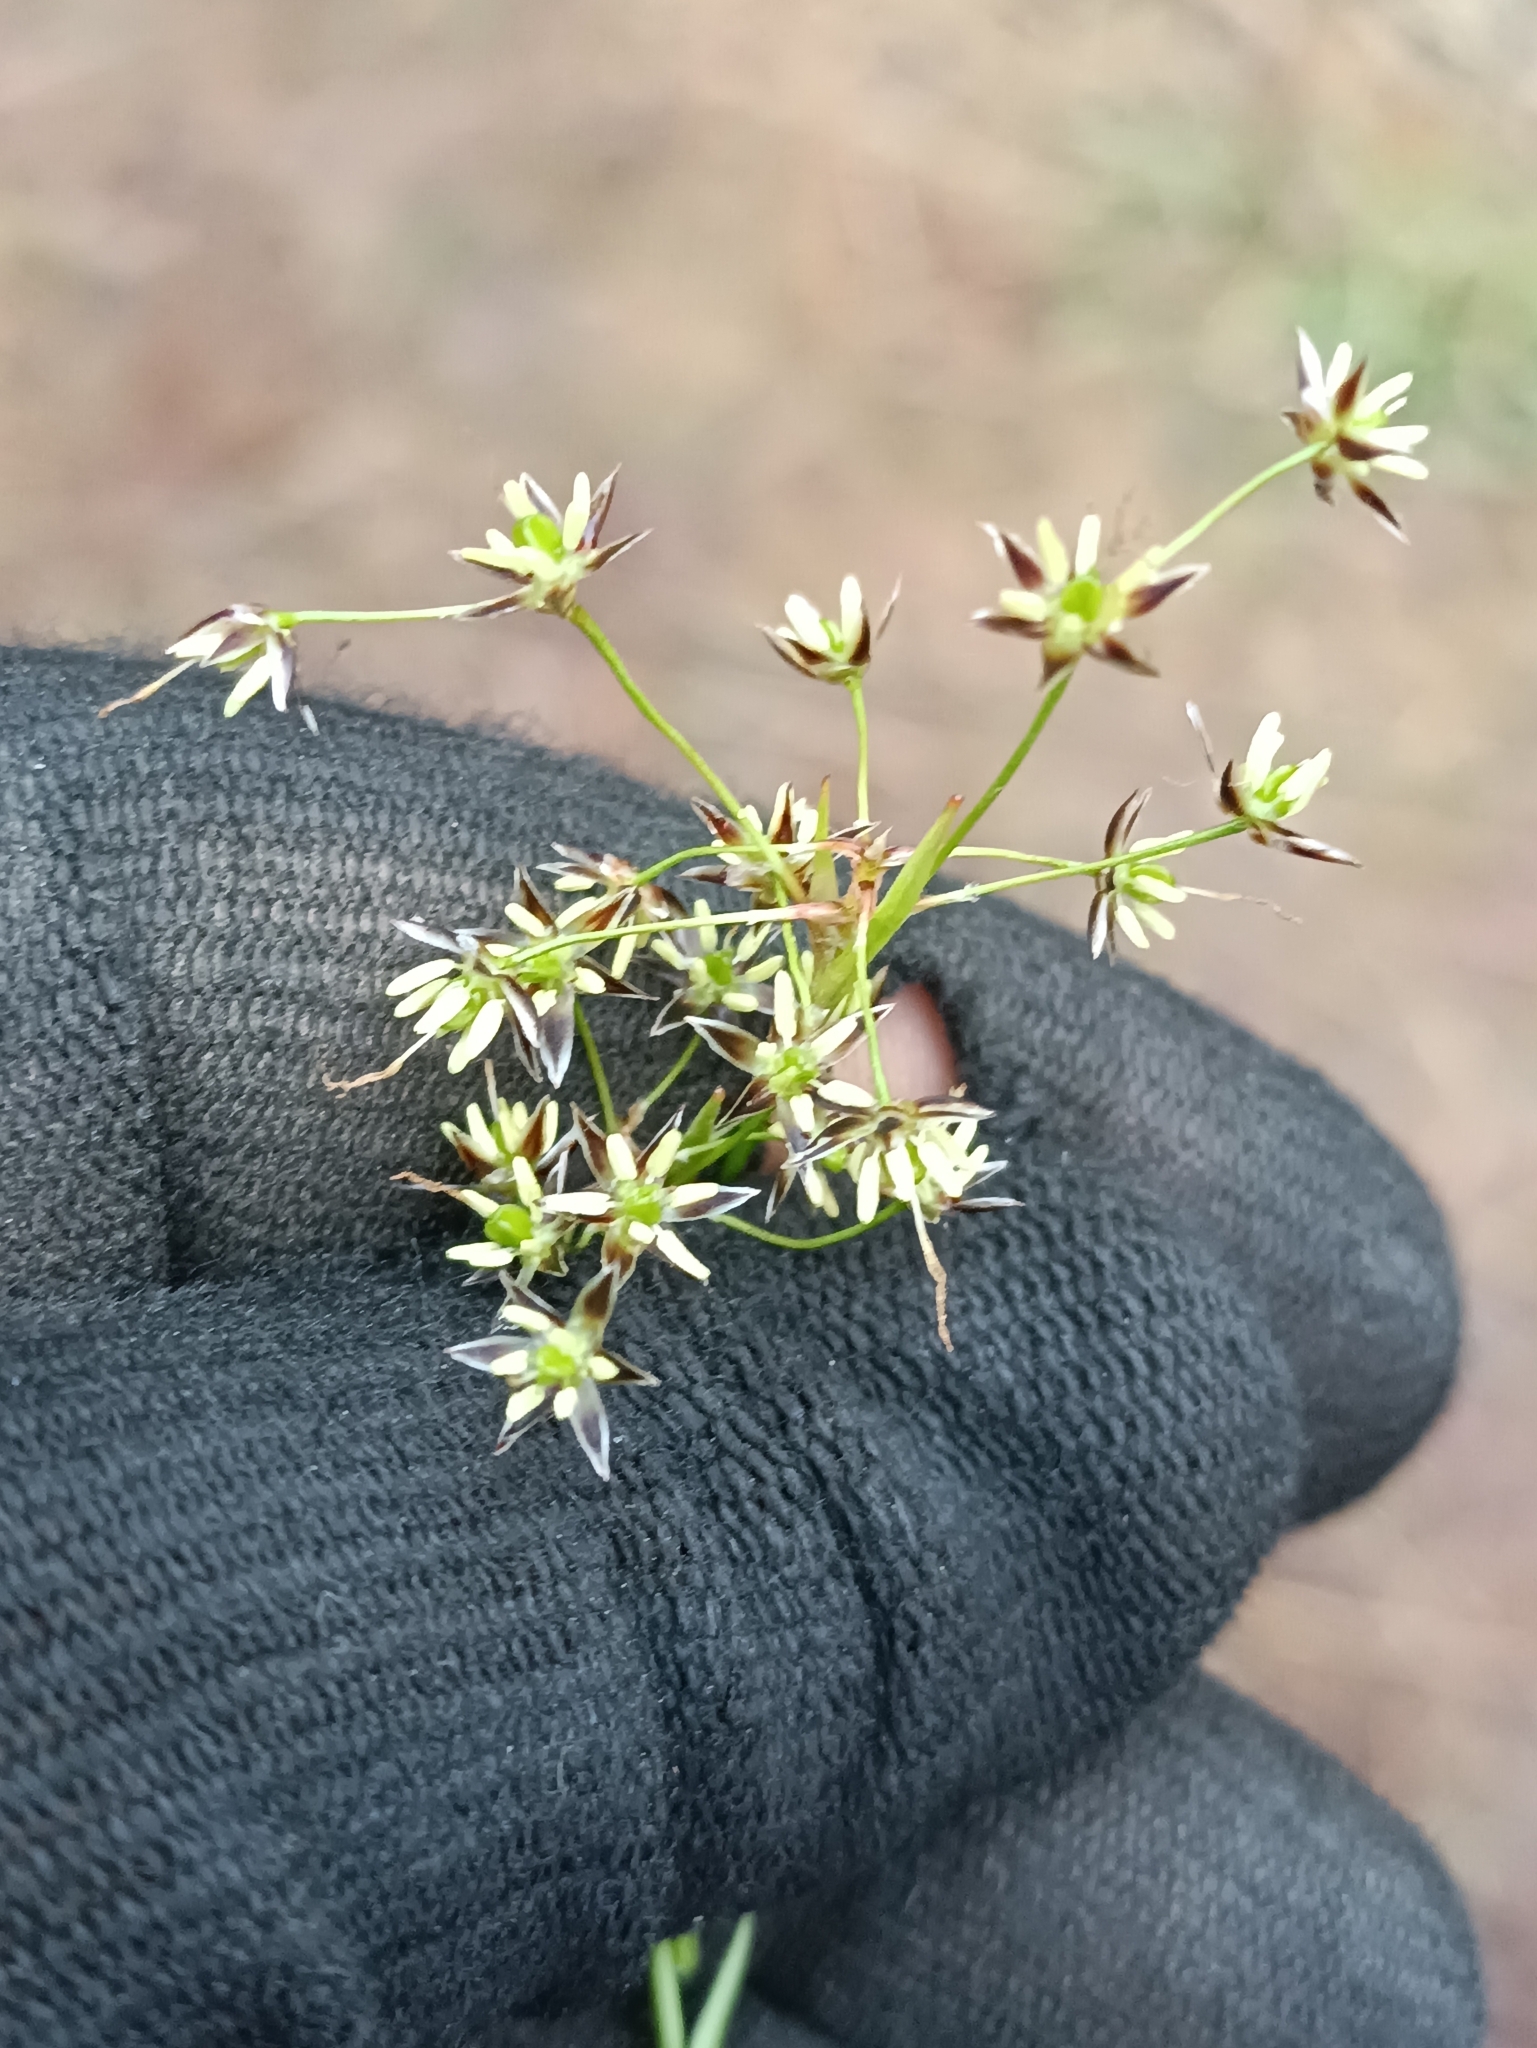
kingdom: Plantae
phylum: Tracheophyta
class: Liliopsida
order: Poales
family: Juncaceae
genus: Luzula
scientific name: Luzula pilosa
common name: Hairy wood-rush
